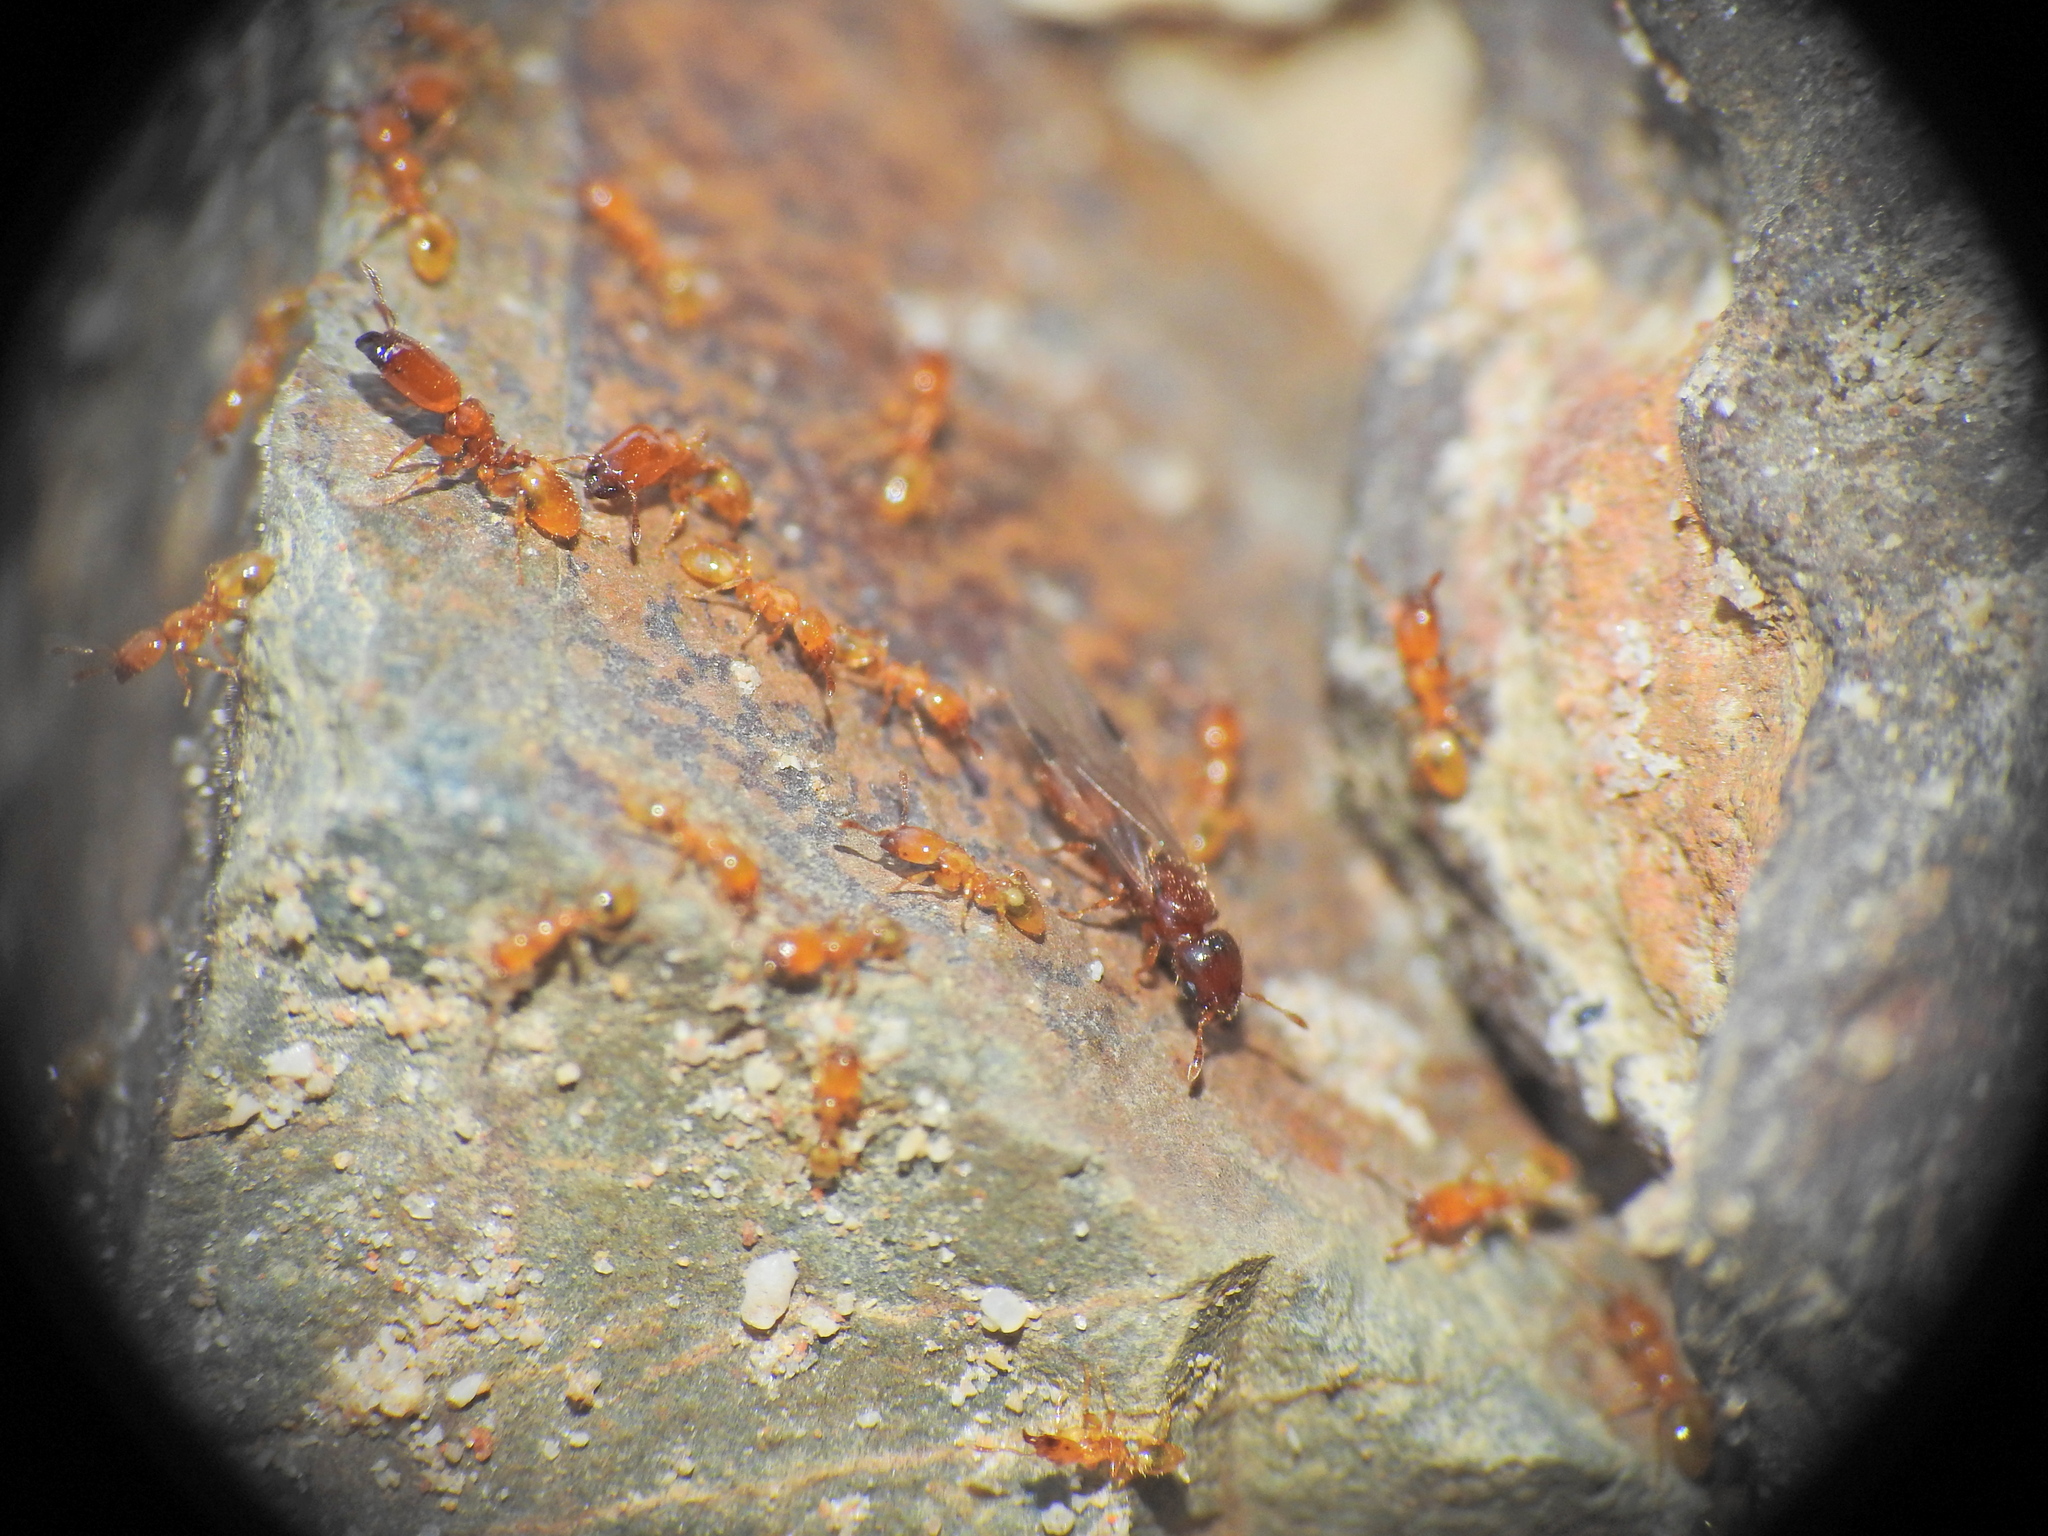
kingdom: Animalia
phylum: Arthropoda
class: Insecta
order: Hymenoptera
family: Formicidae
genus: Pheidole
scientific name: Pheidole
